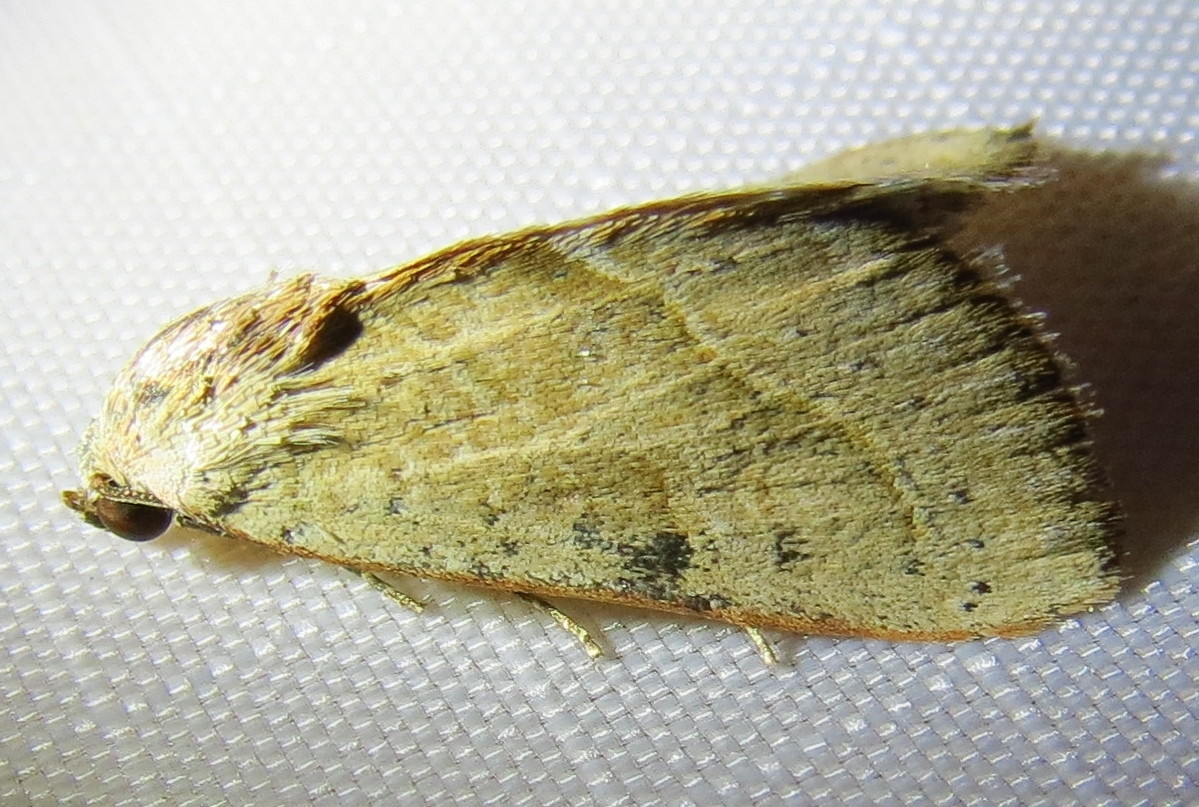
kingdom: Animalia
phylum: Arthropoda
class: Insecta
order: Lepidoptera
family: Noctuidae
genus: Galgula
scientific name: Galgula partita
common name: Wedgeling
